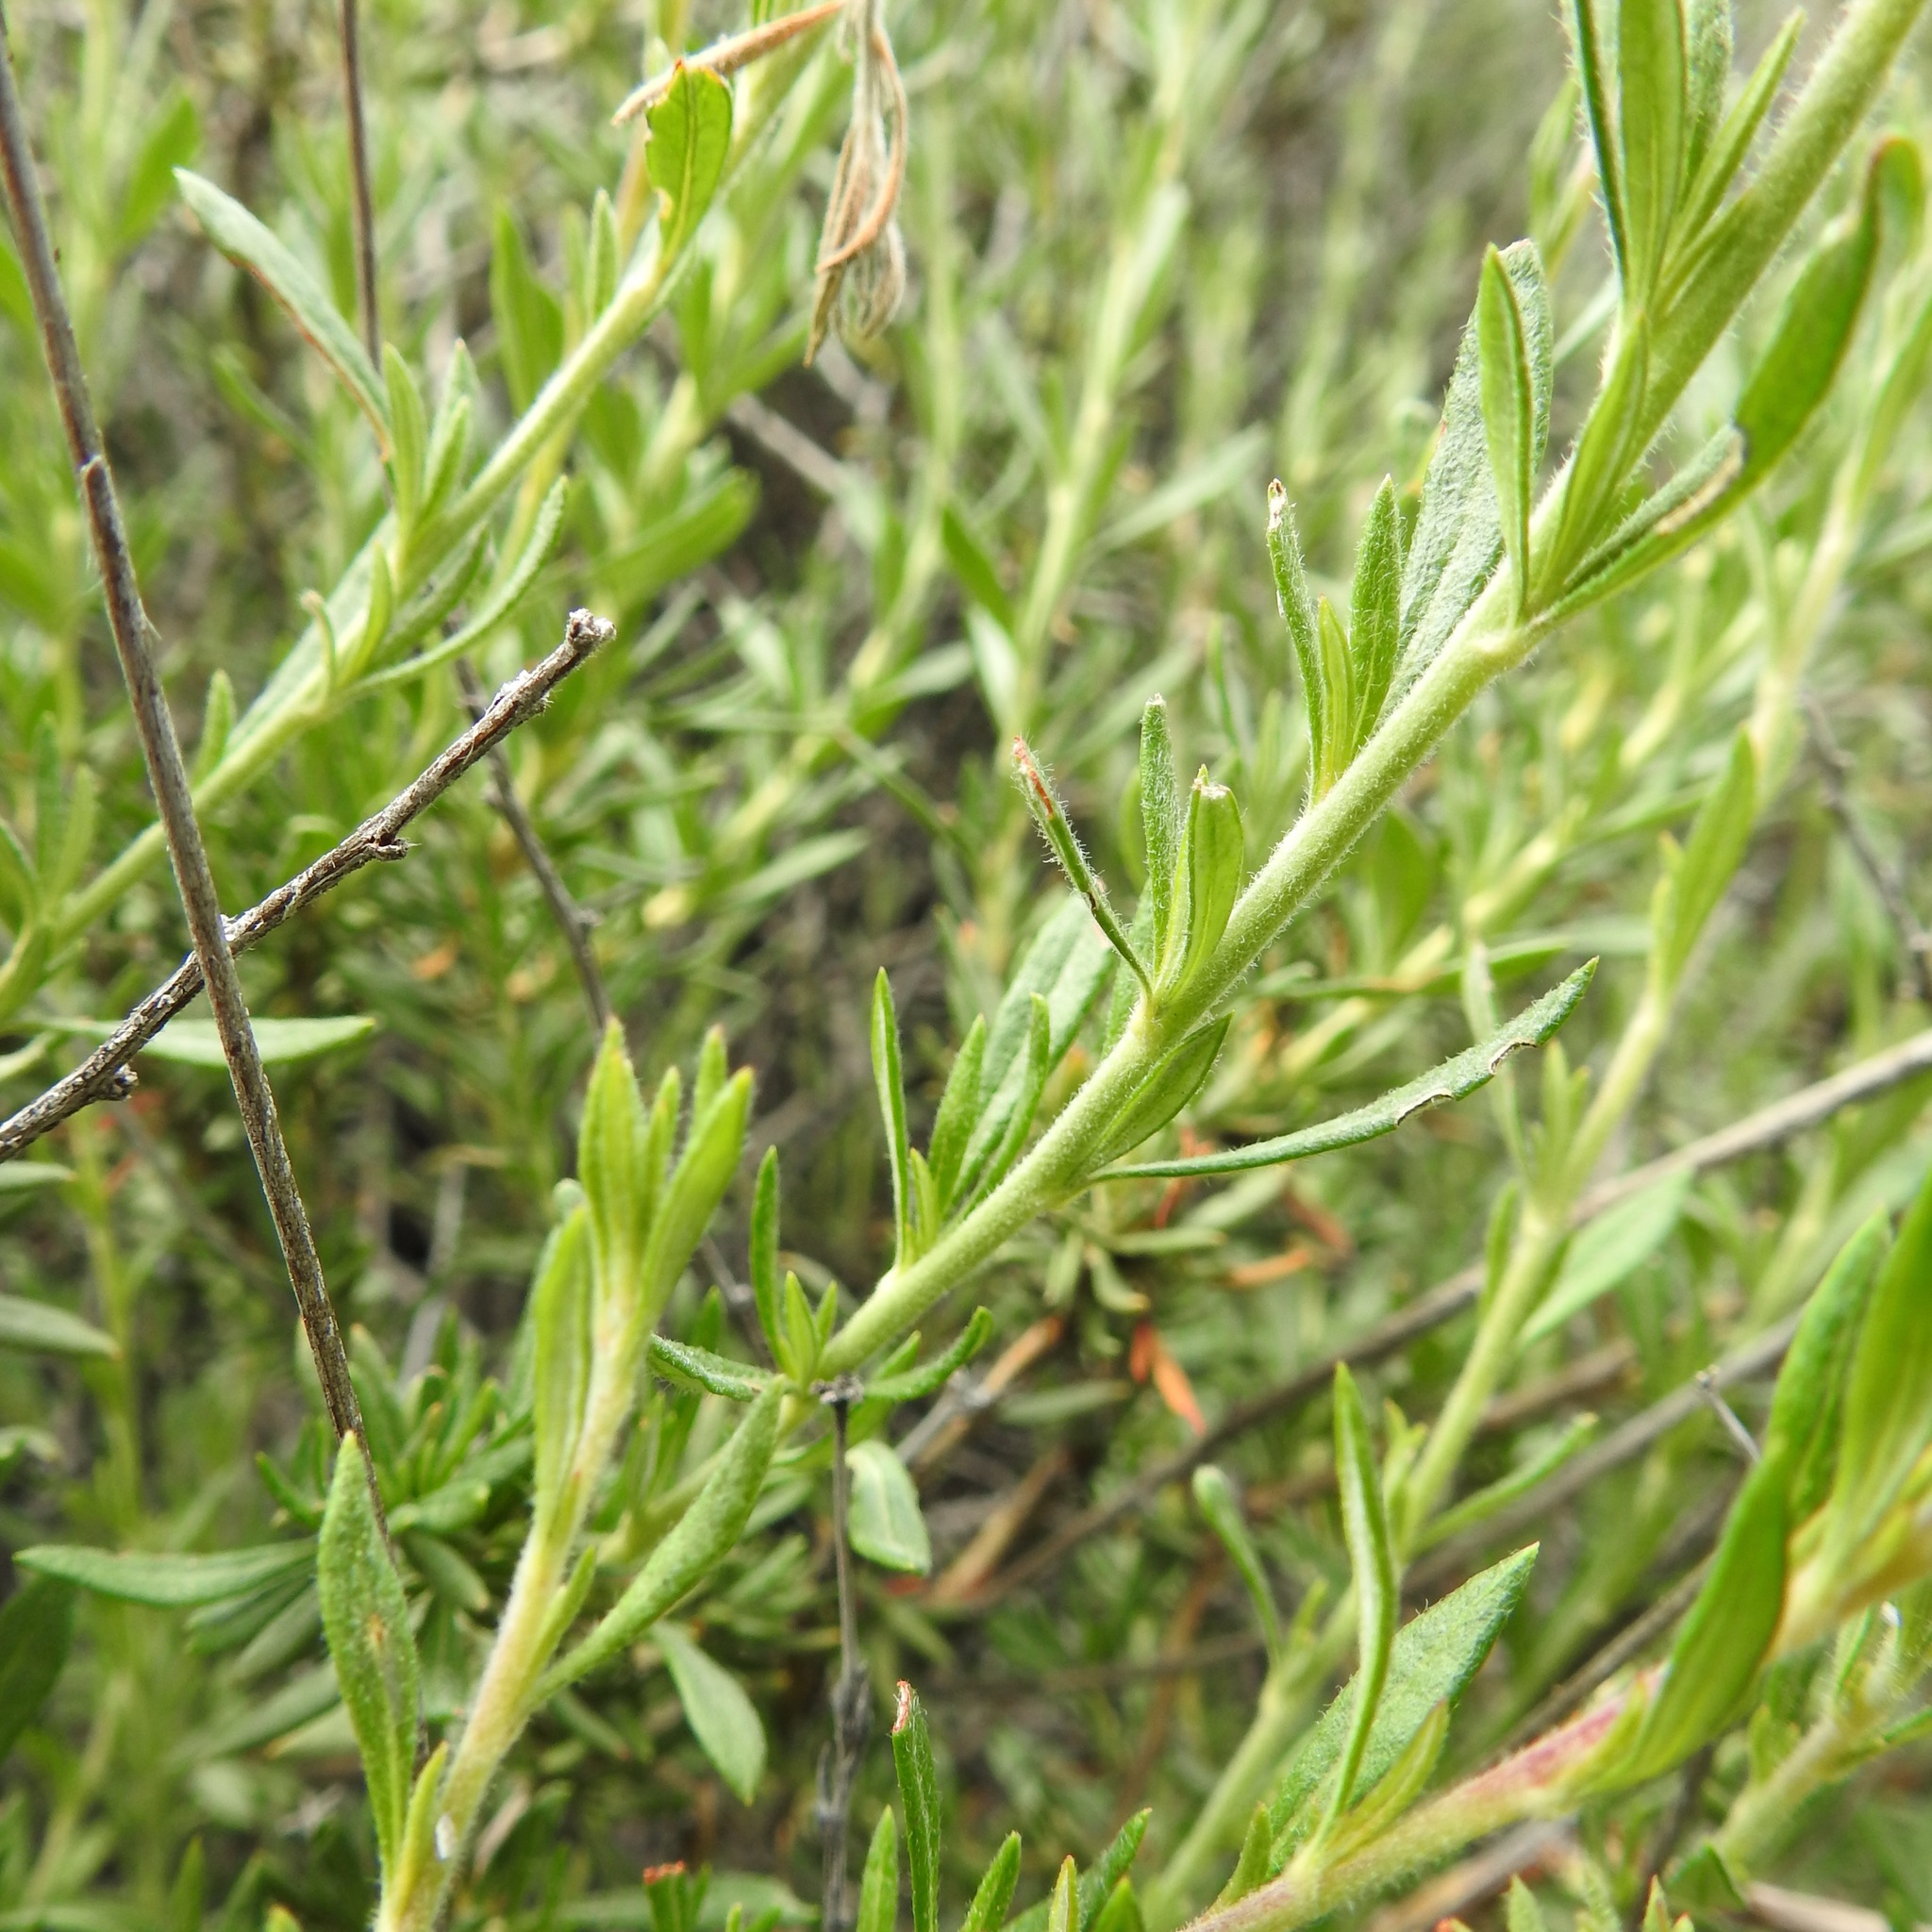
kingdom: Plantae
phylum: Tracheophyta
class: Magnoliopsida
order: Caryophyllales
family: Polygonaceae
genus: Eriogonum
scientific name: Eriogonum fasciculatum
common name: California wild buckwheat
